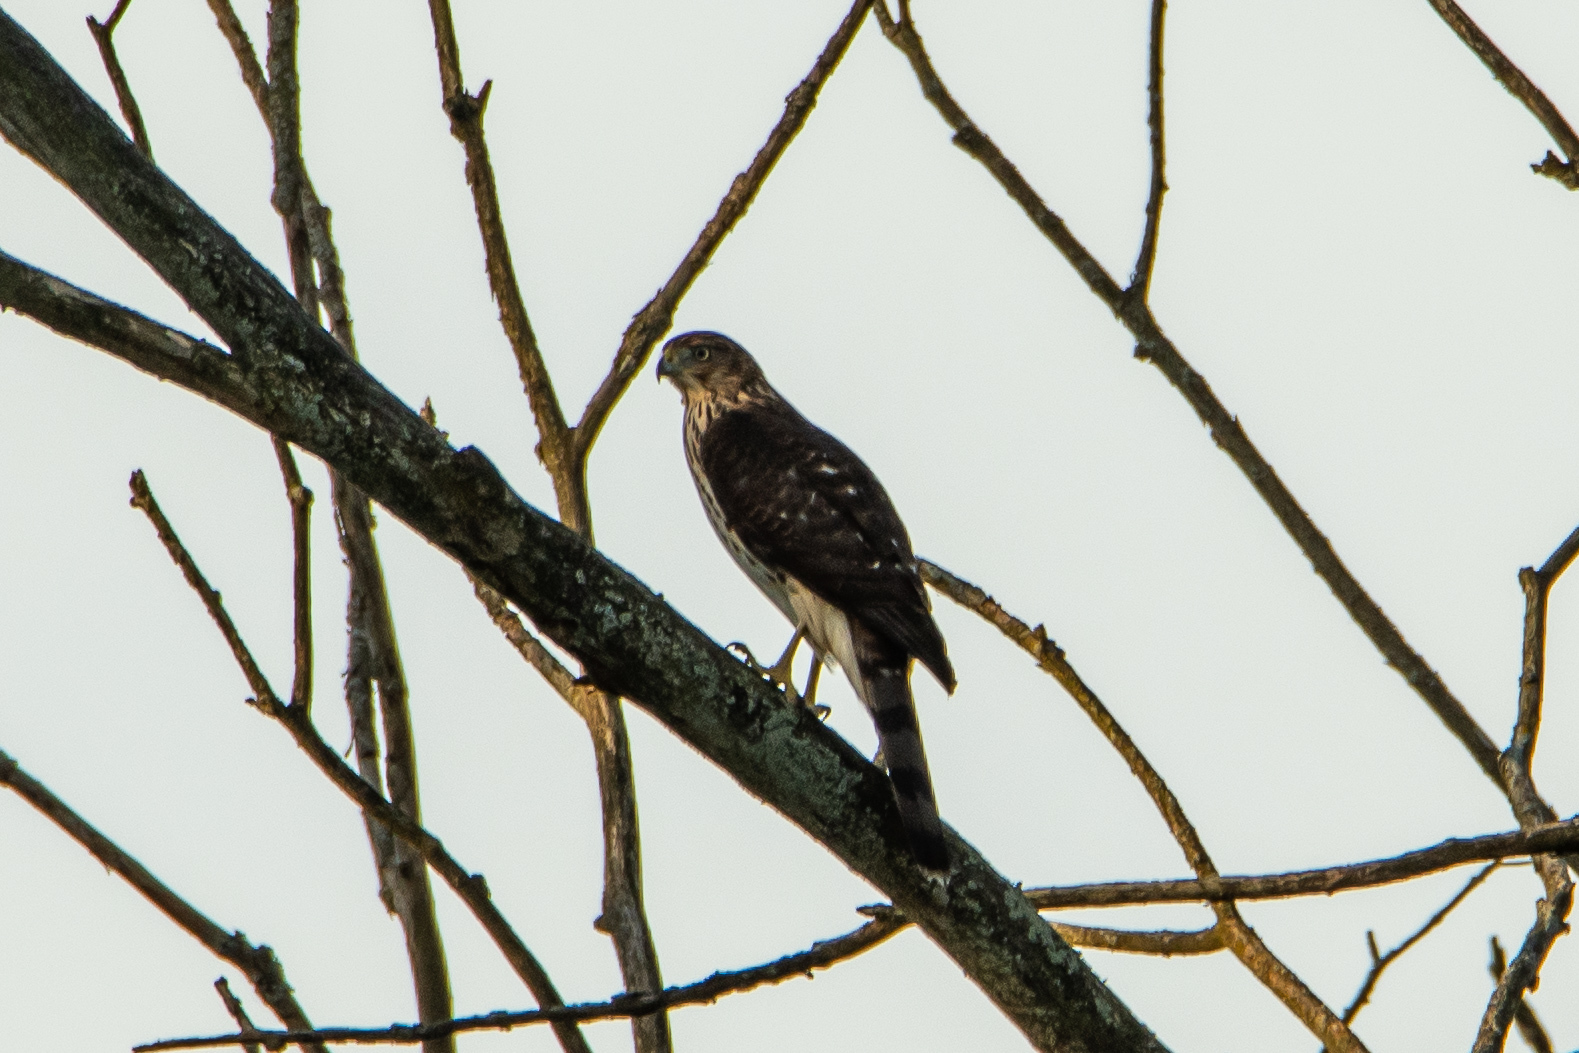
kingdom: Animalia
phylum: Chordata
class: Aves
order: Accipitriformes
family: Accipitridae
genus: Accipiter
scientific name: Accipiter cooperii
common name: Cooper's hawk
